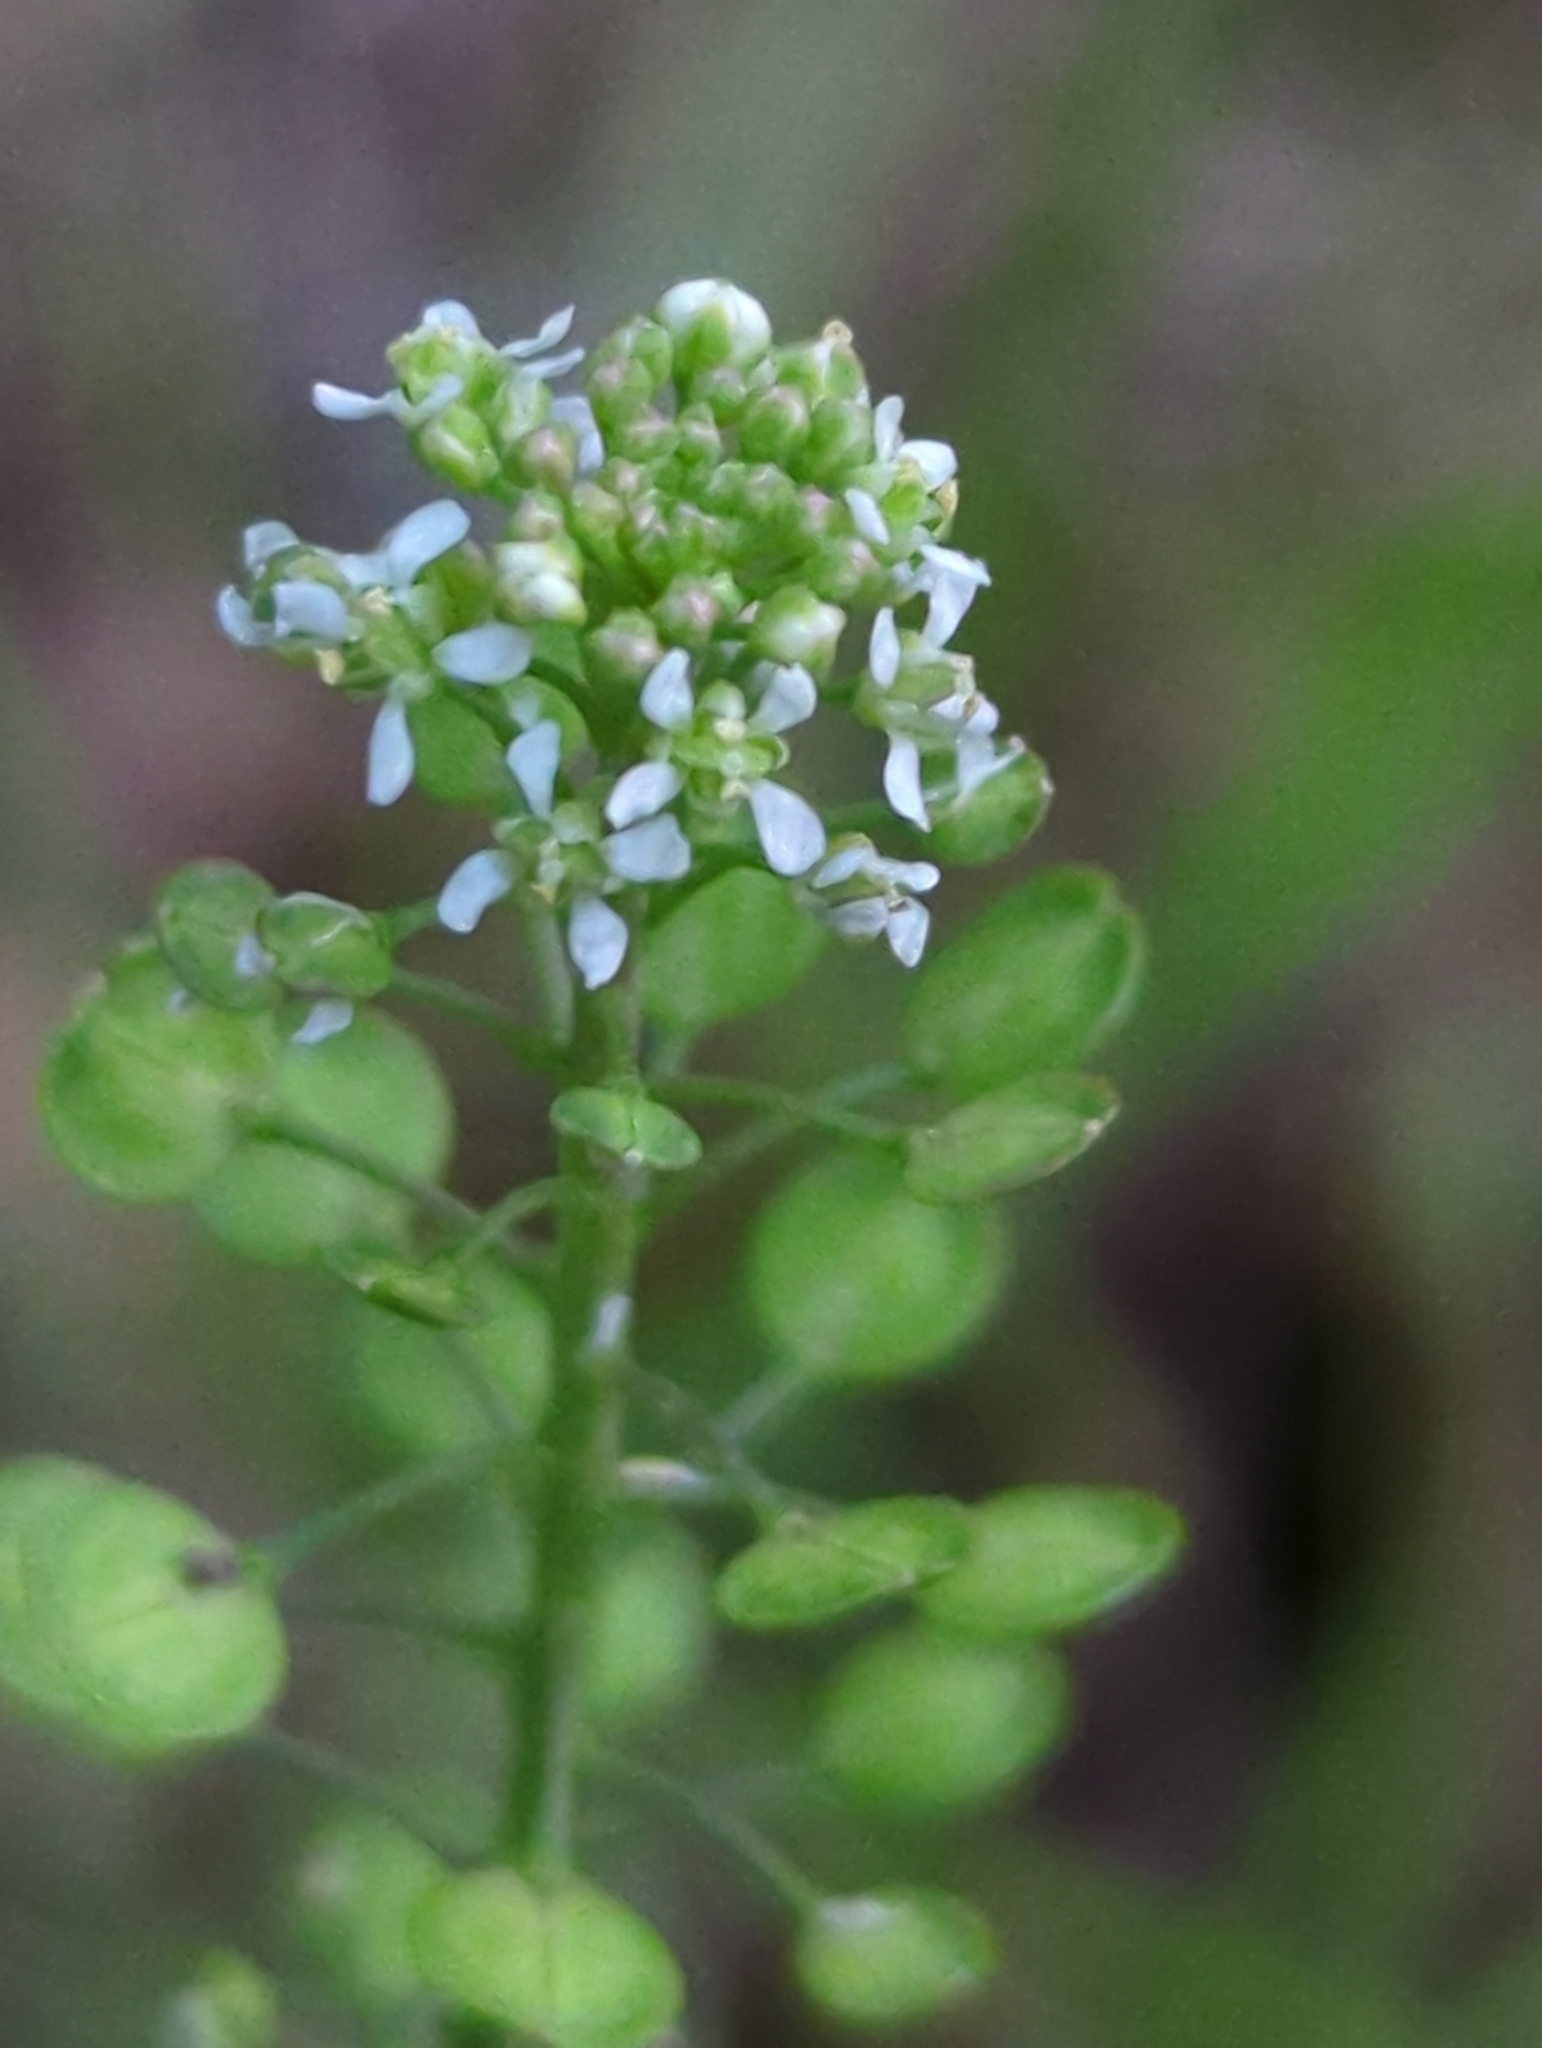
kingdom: Plantae
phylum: Tracheophyta
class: Magnoliopsida
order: Brassicales
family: Brassicaceae
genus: Lepidium
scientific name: Lepidium virginicum
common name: Least pepperwort
